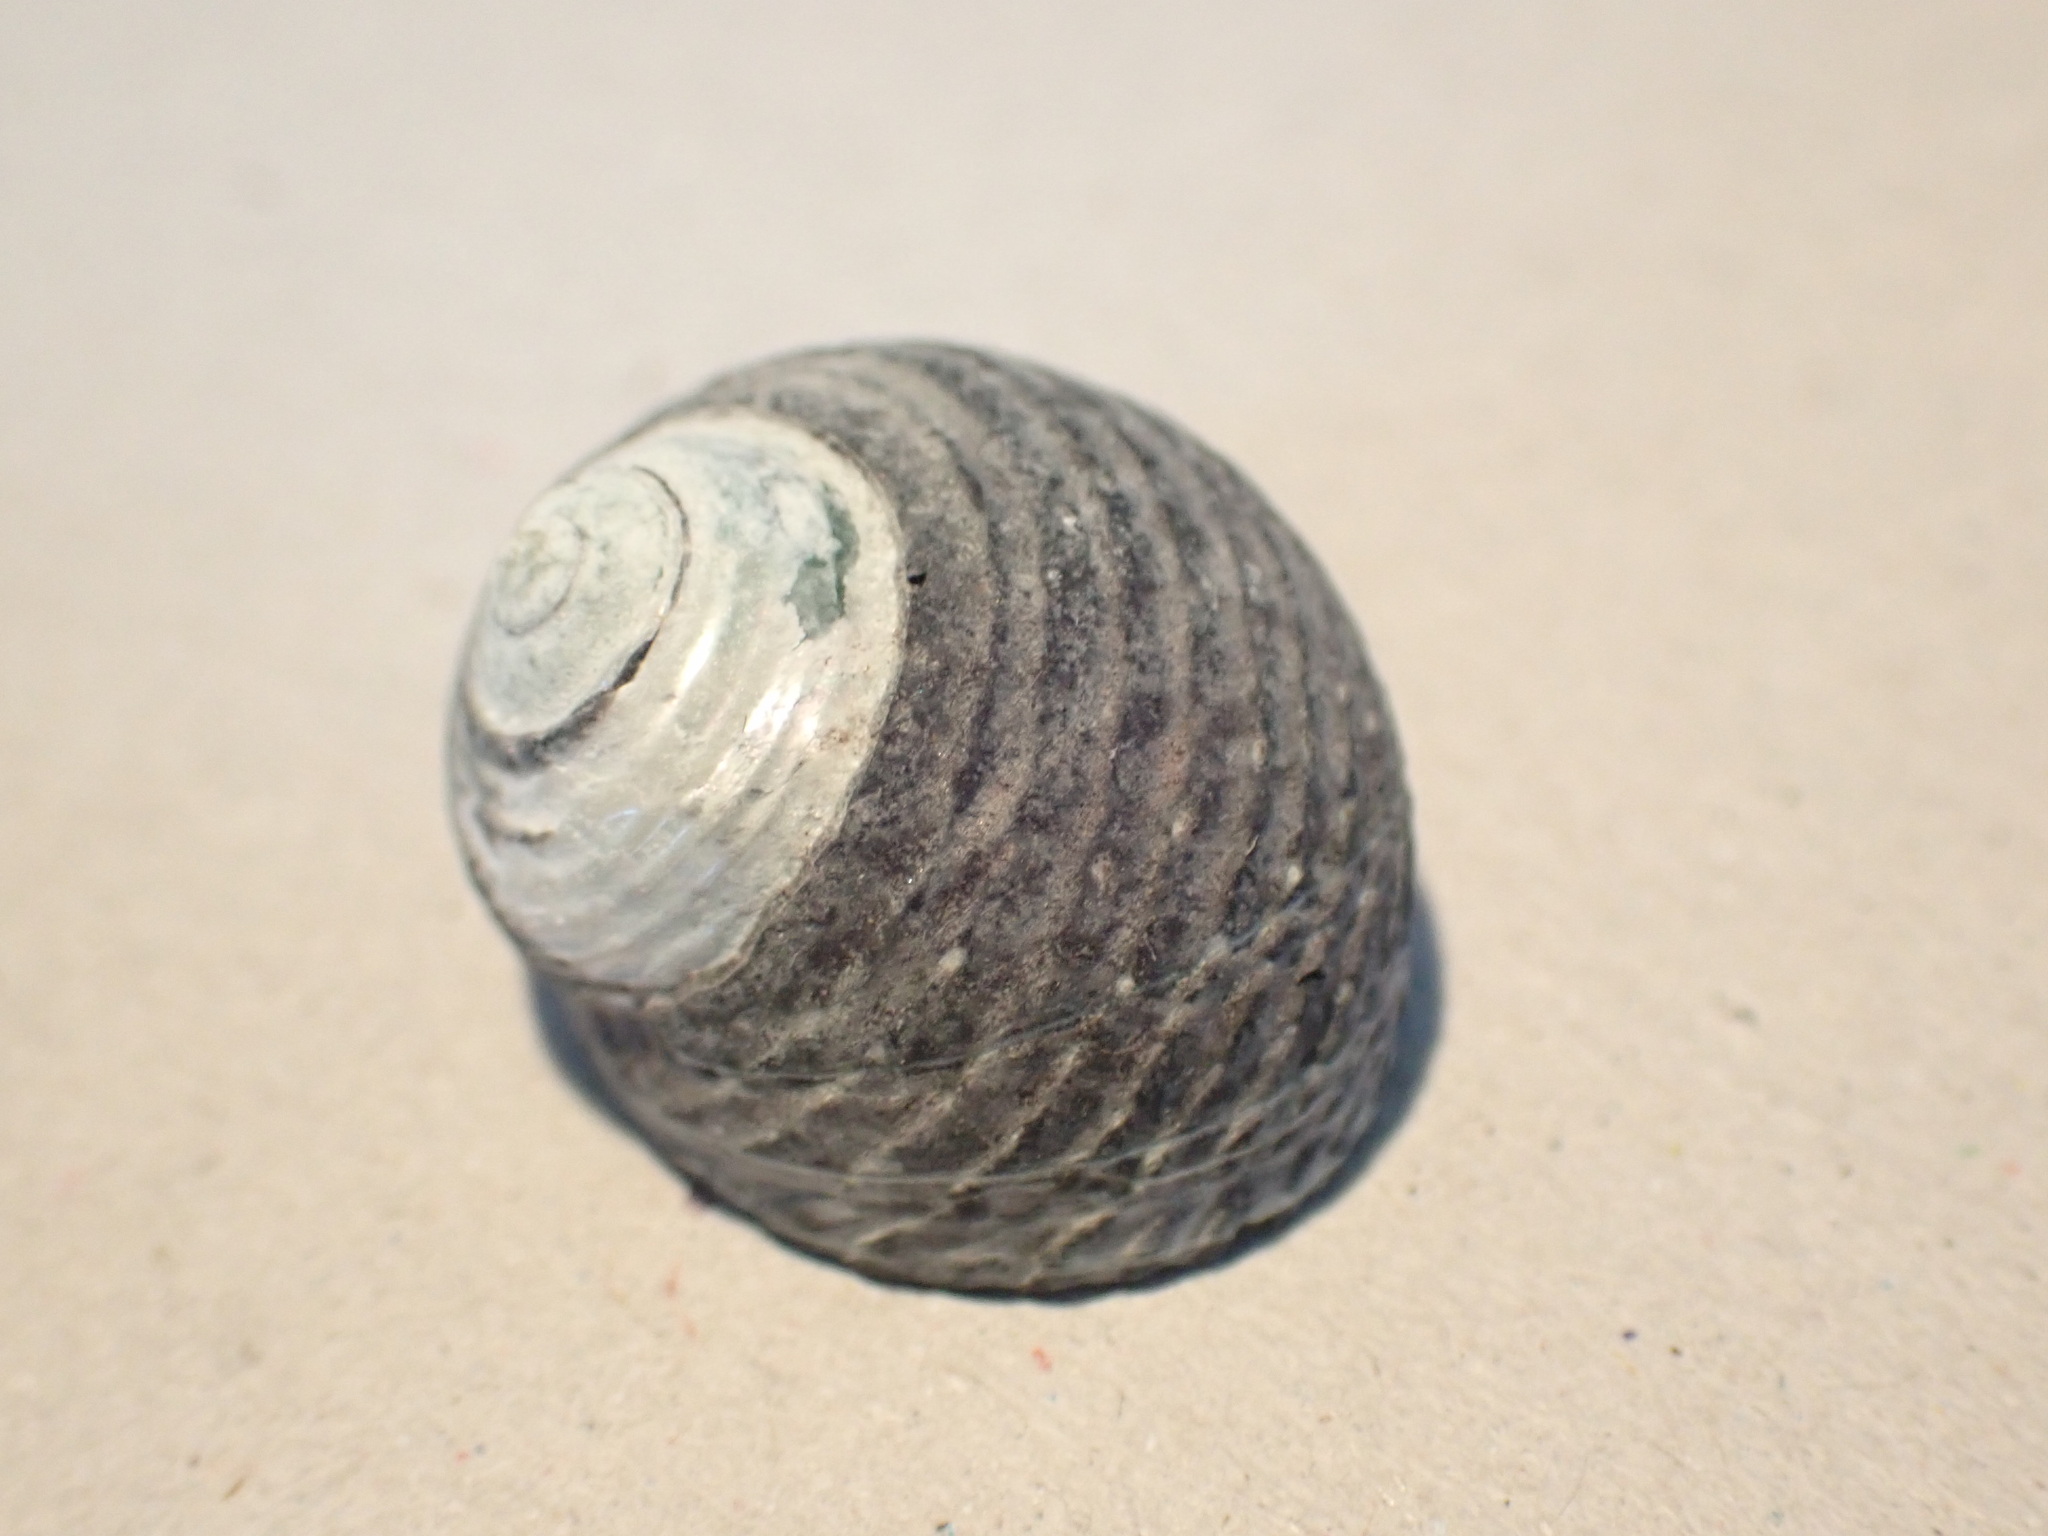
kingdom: Animalia
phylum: Mollusca
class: Gastropoda
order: Trochida
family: Trochidae
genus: Diloma
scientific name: Diloma zelandicum
